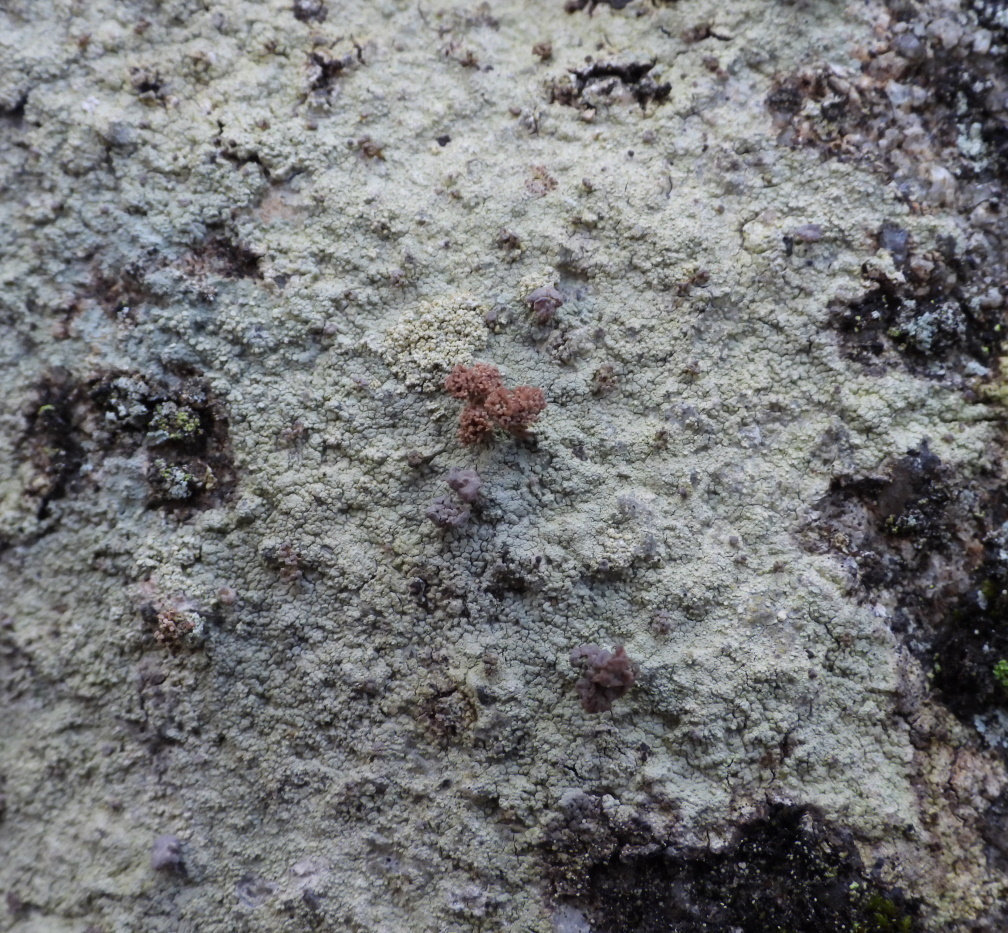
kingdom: Fungi
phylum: Ascomycota
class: Lecanoromycetes
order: Baeomycetales
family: Baeomycetaceae
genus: Baeomyces
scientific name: Baeomyces carneus
